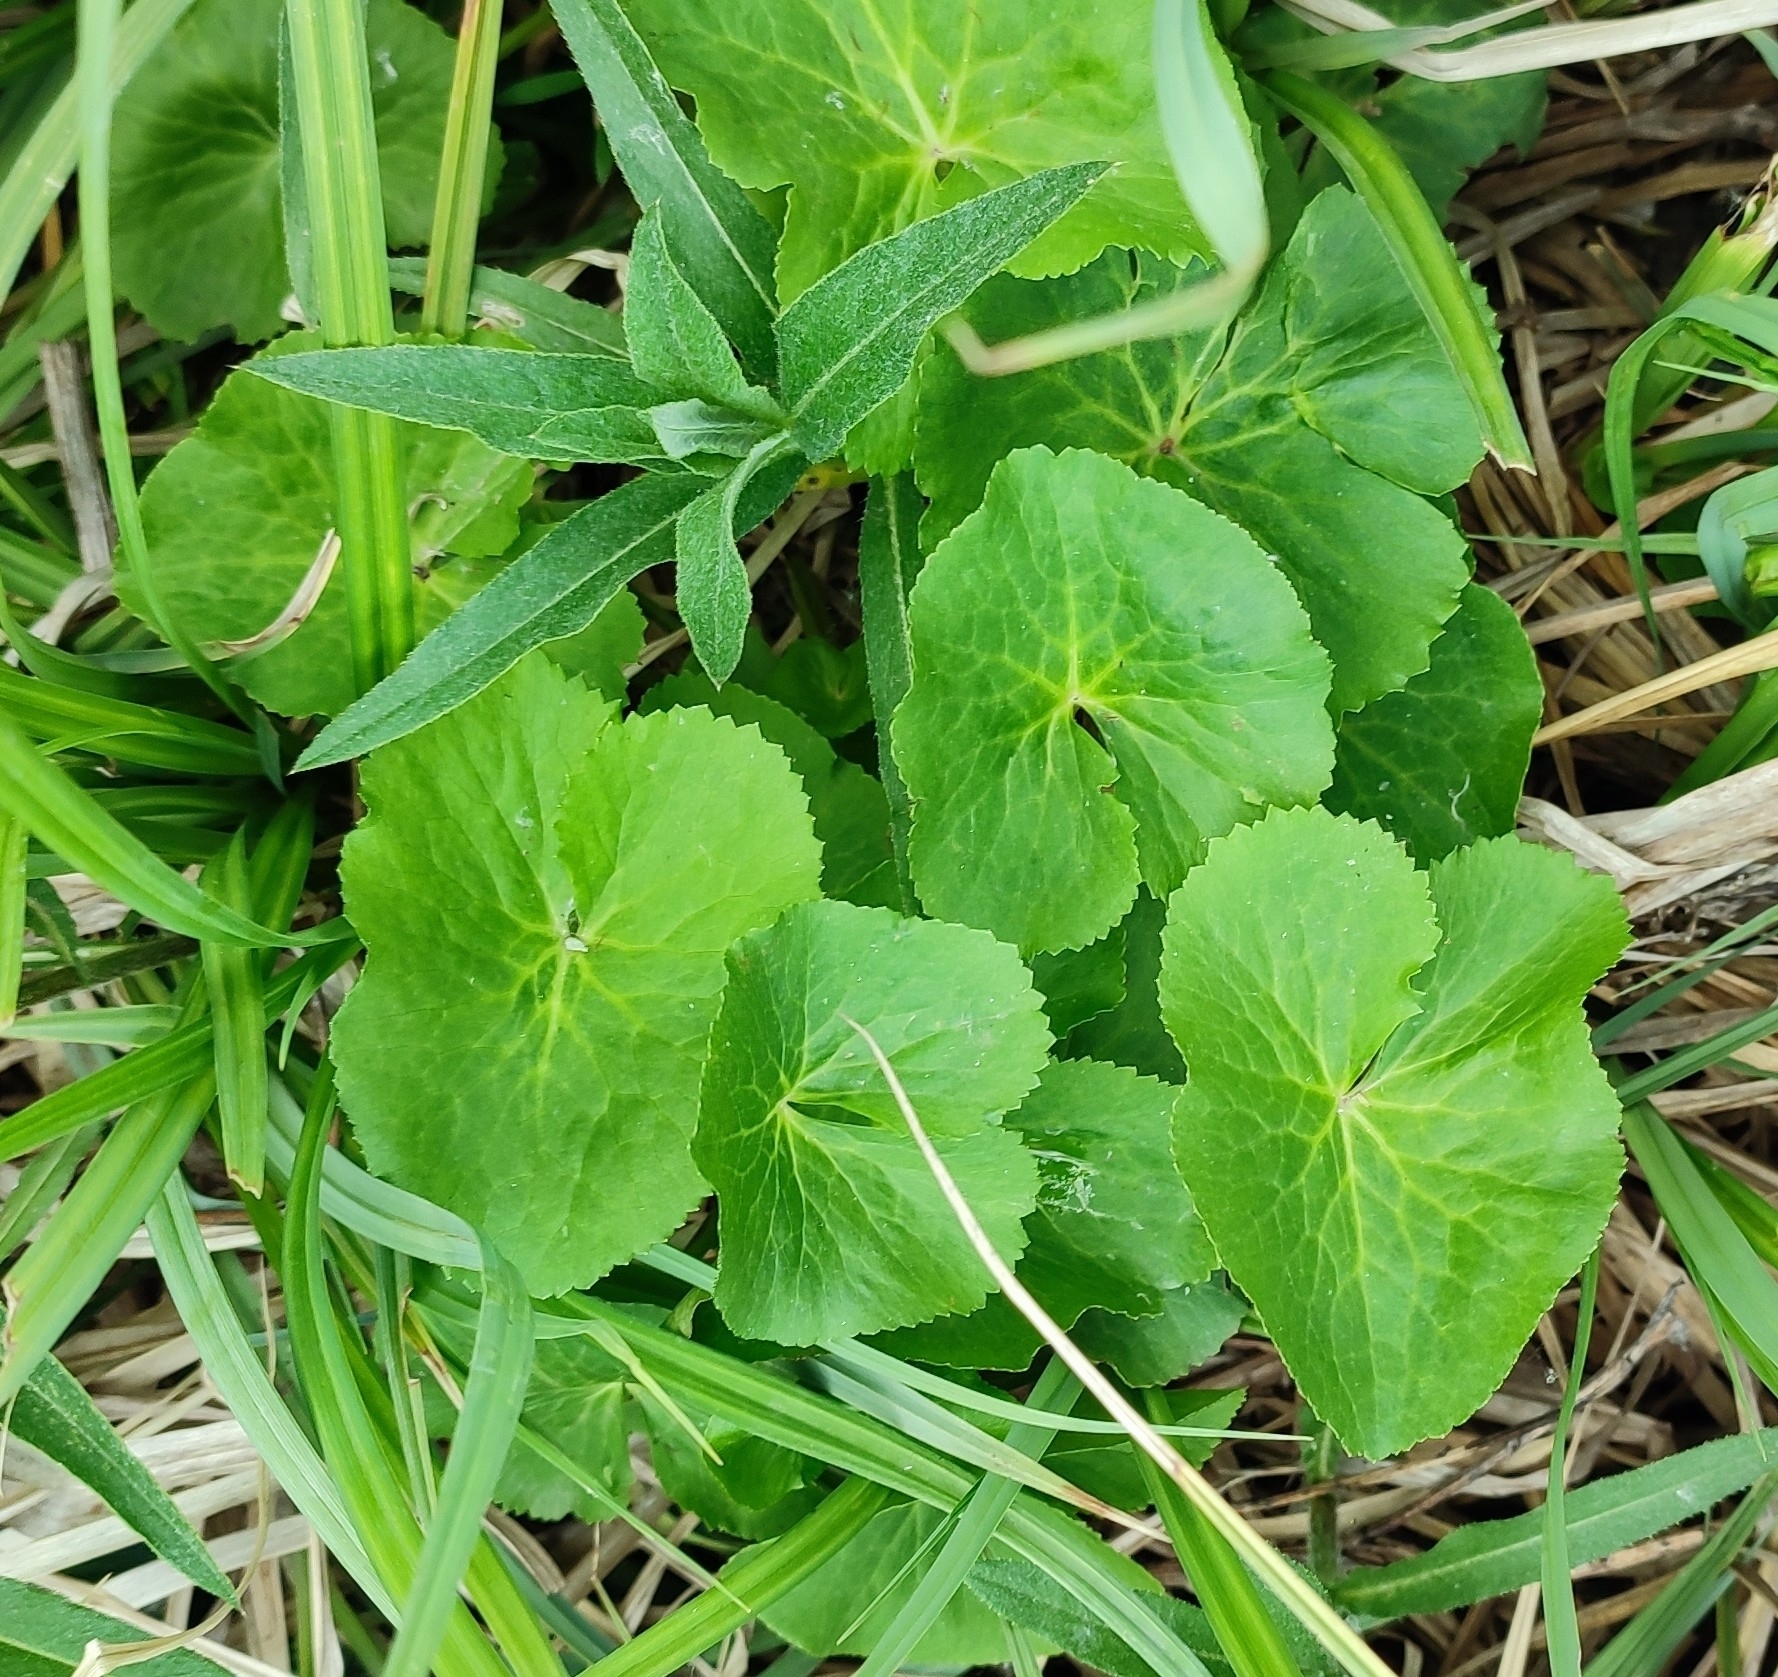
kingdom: Plantae
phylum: Tracheophyta
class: Magnoliopsida
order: Ranunculales
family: Ranunculaceae
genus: Caltha
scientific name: Caltha palustris
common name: Marsh marigold
